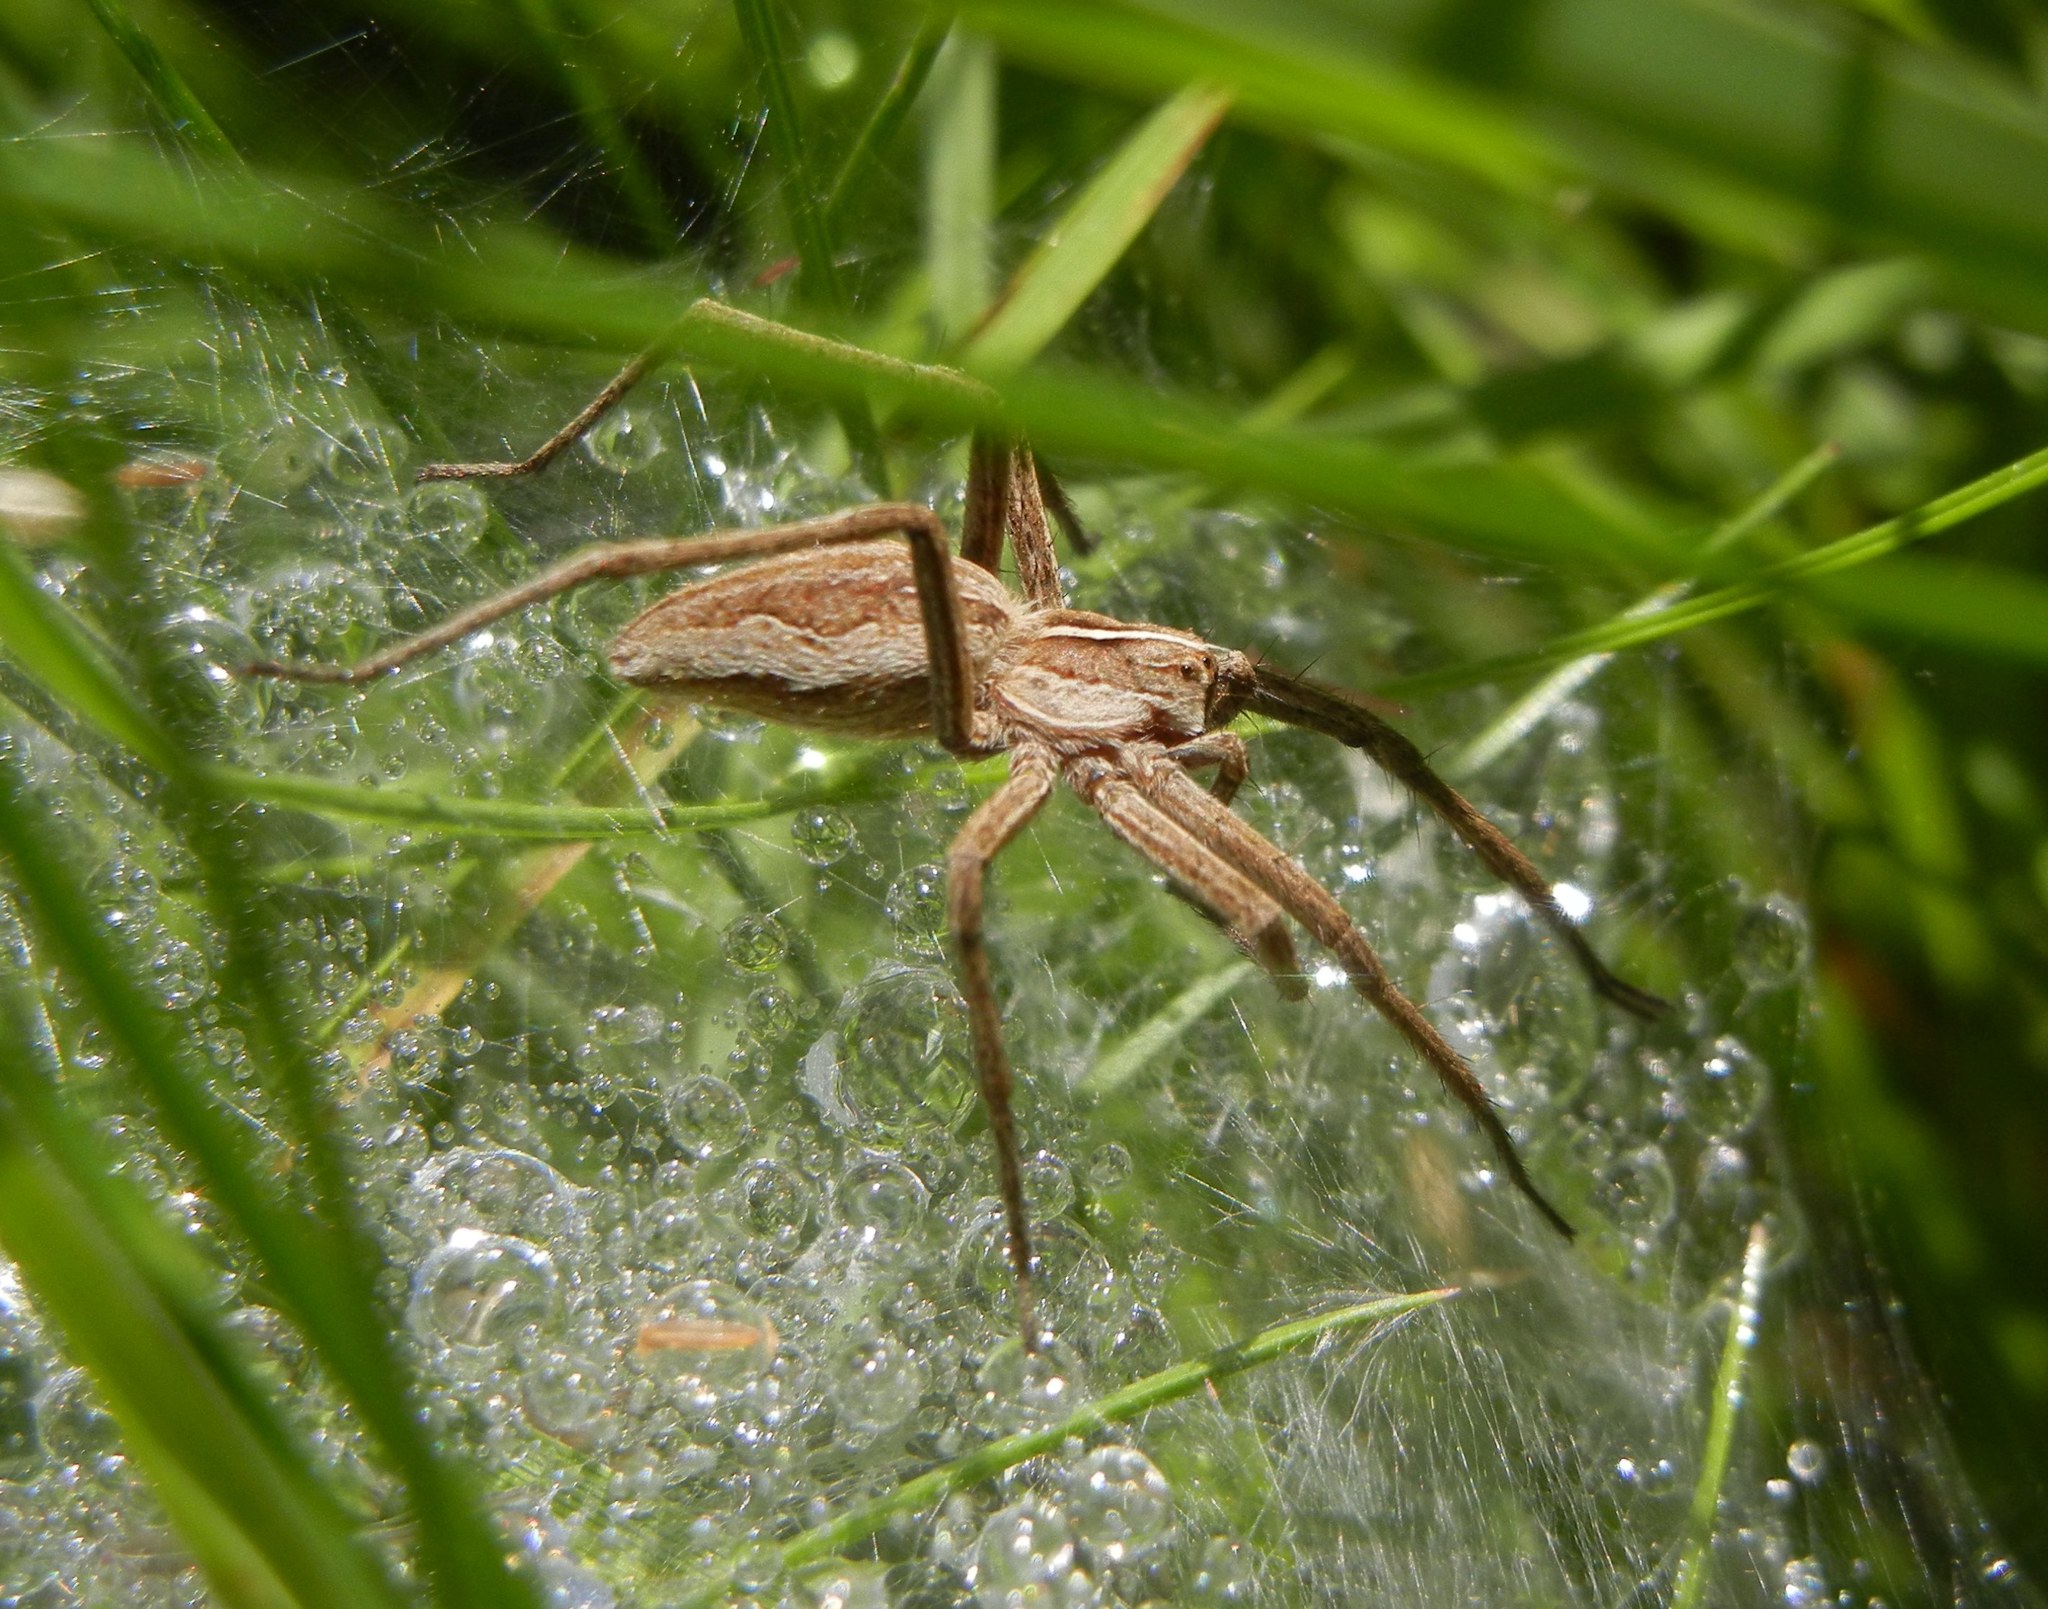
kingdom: Animalia
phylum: Arthropoda
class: Arachnida
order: Araneae
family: Pisauridae
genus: Pisaura
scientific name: Pisaura mirabilis
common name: Tent spider
